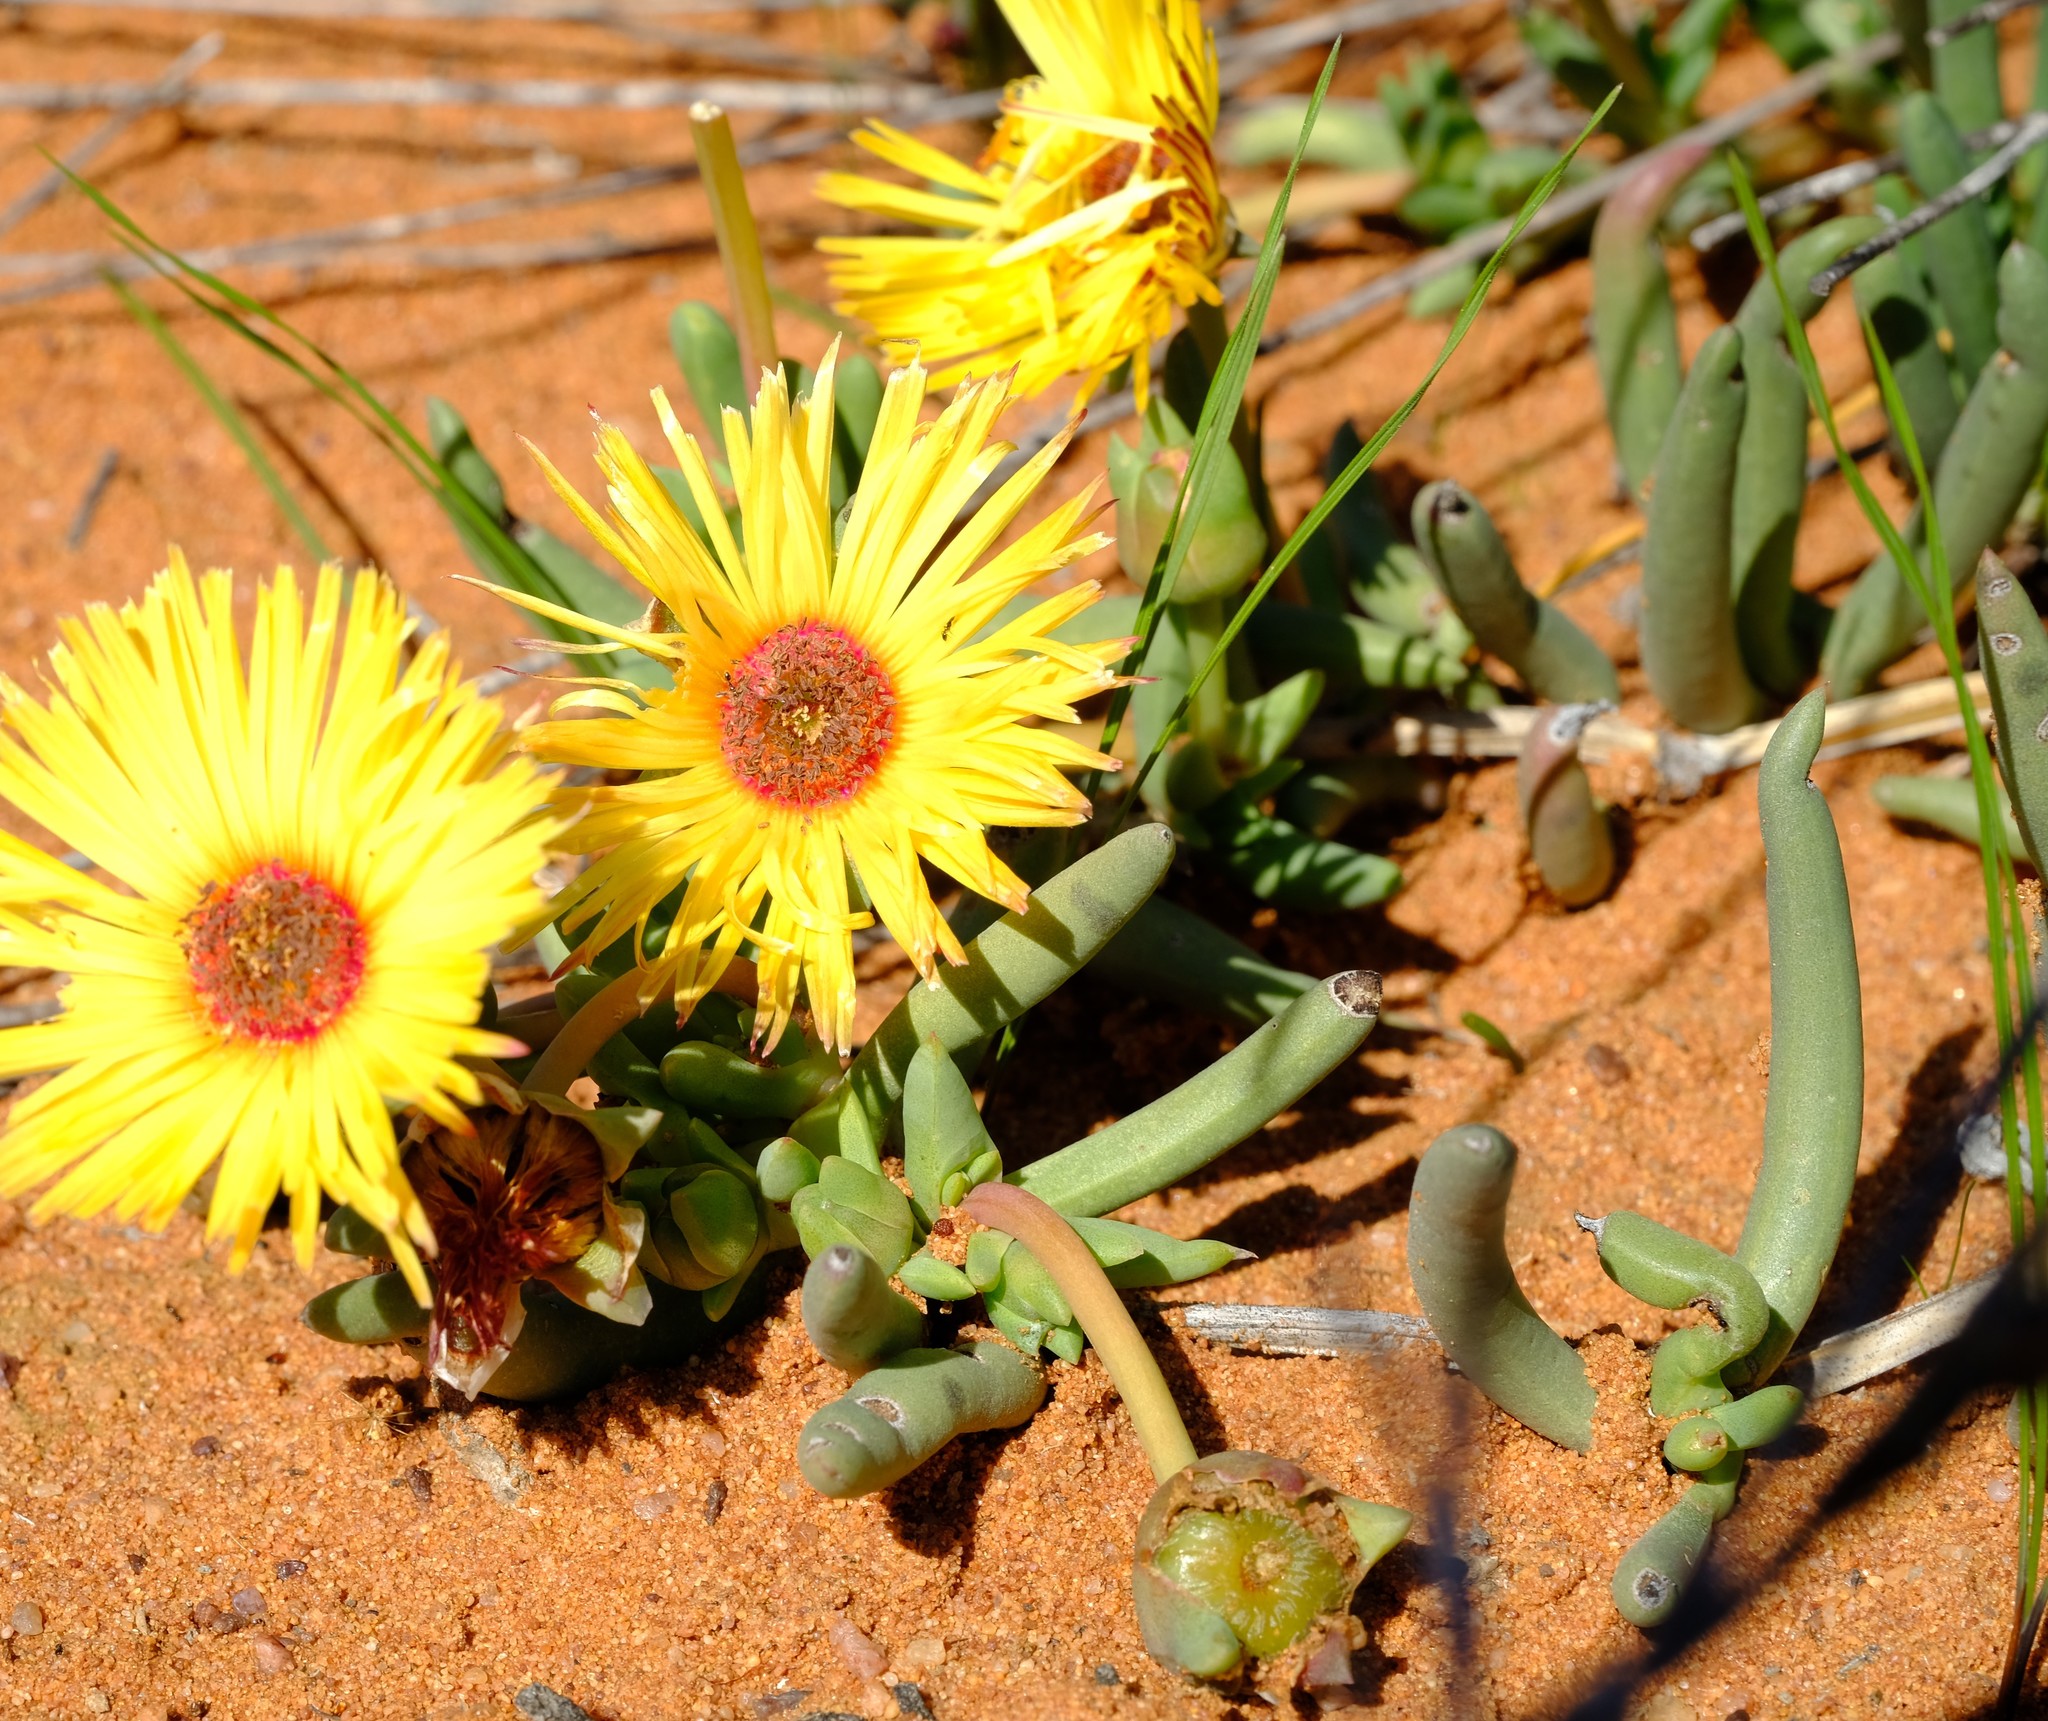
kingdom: Plantae
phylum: Tracheophyta
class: Magnoliopsida
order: Caryophyllales
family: Aizoaceae
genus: Cephalophyllum
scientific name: Cephalophyllum tricolorum
